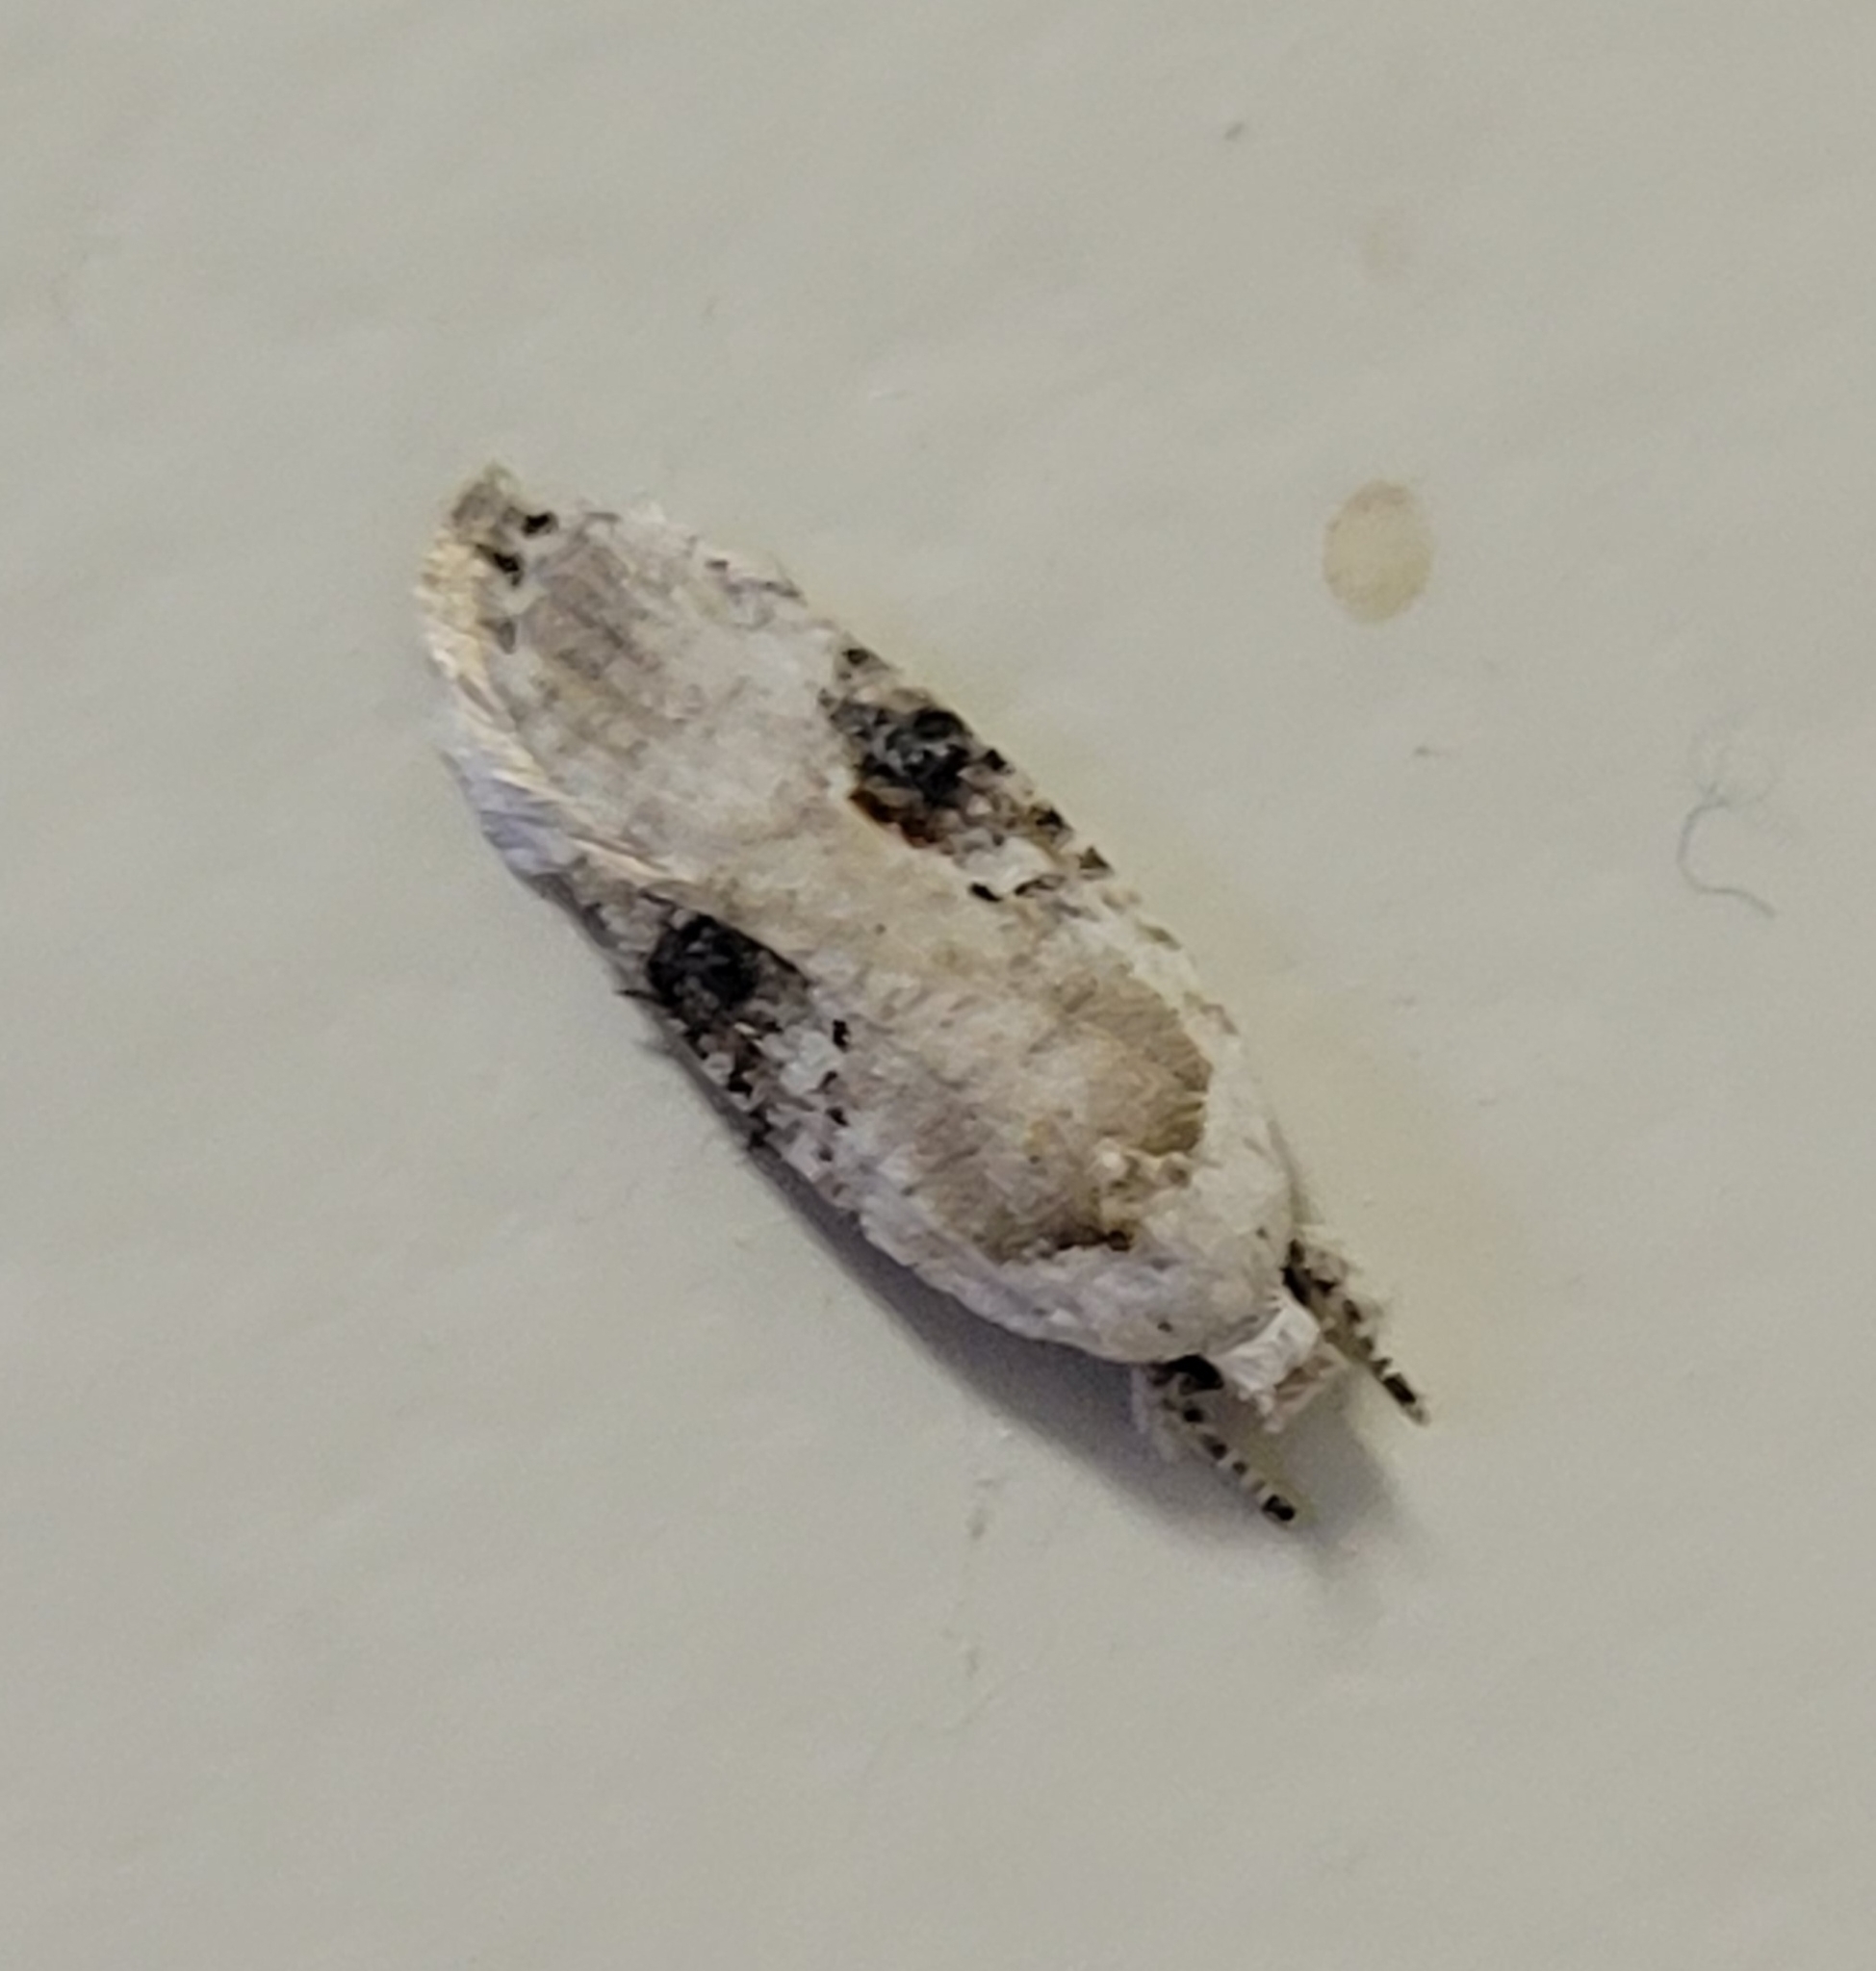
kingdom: Animalia
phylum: Arthropoda
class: Insecta
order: Lepidoptera
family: Depressariidae
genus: Agonopterix
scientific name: Agonopterix alstroemeriana
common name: Moth
